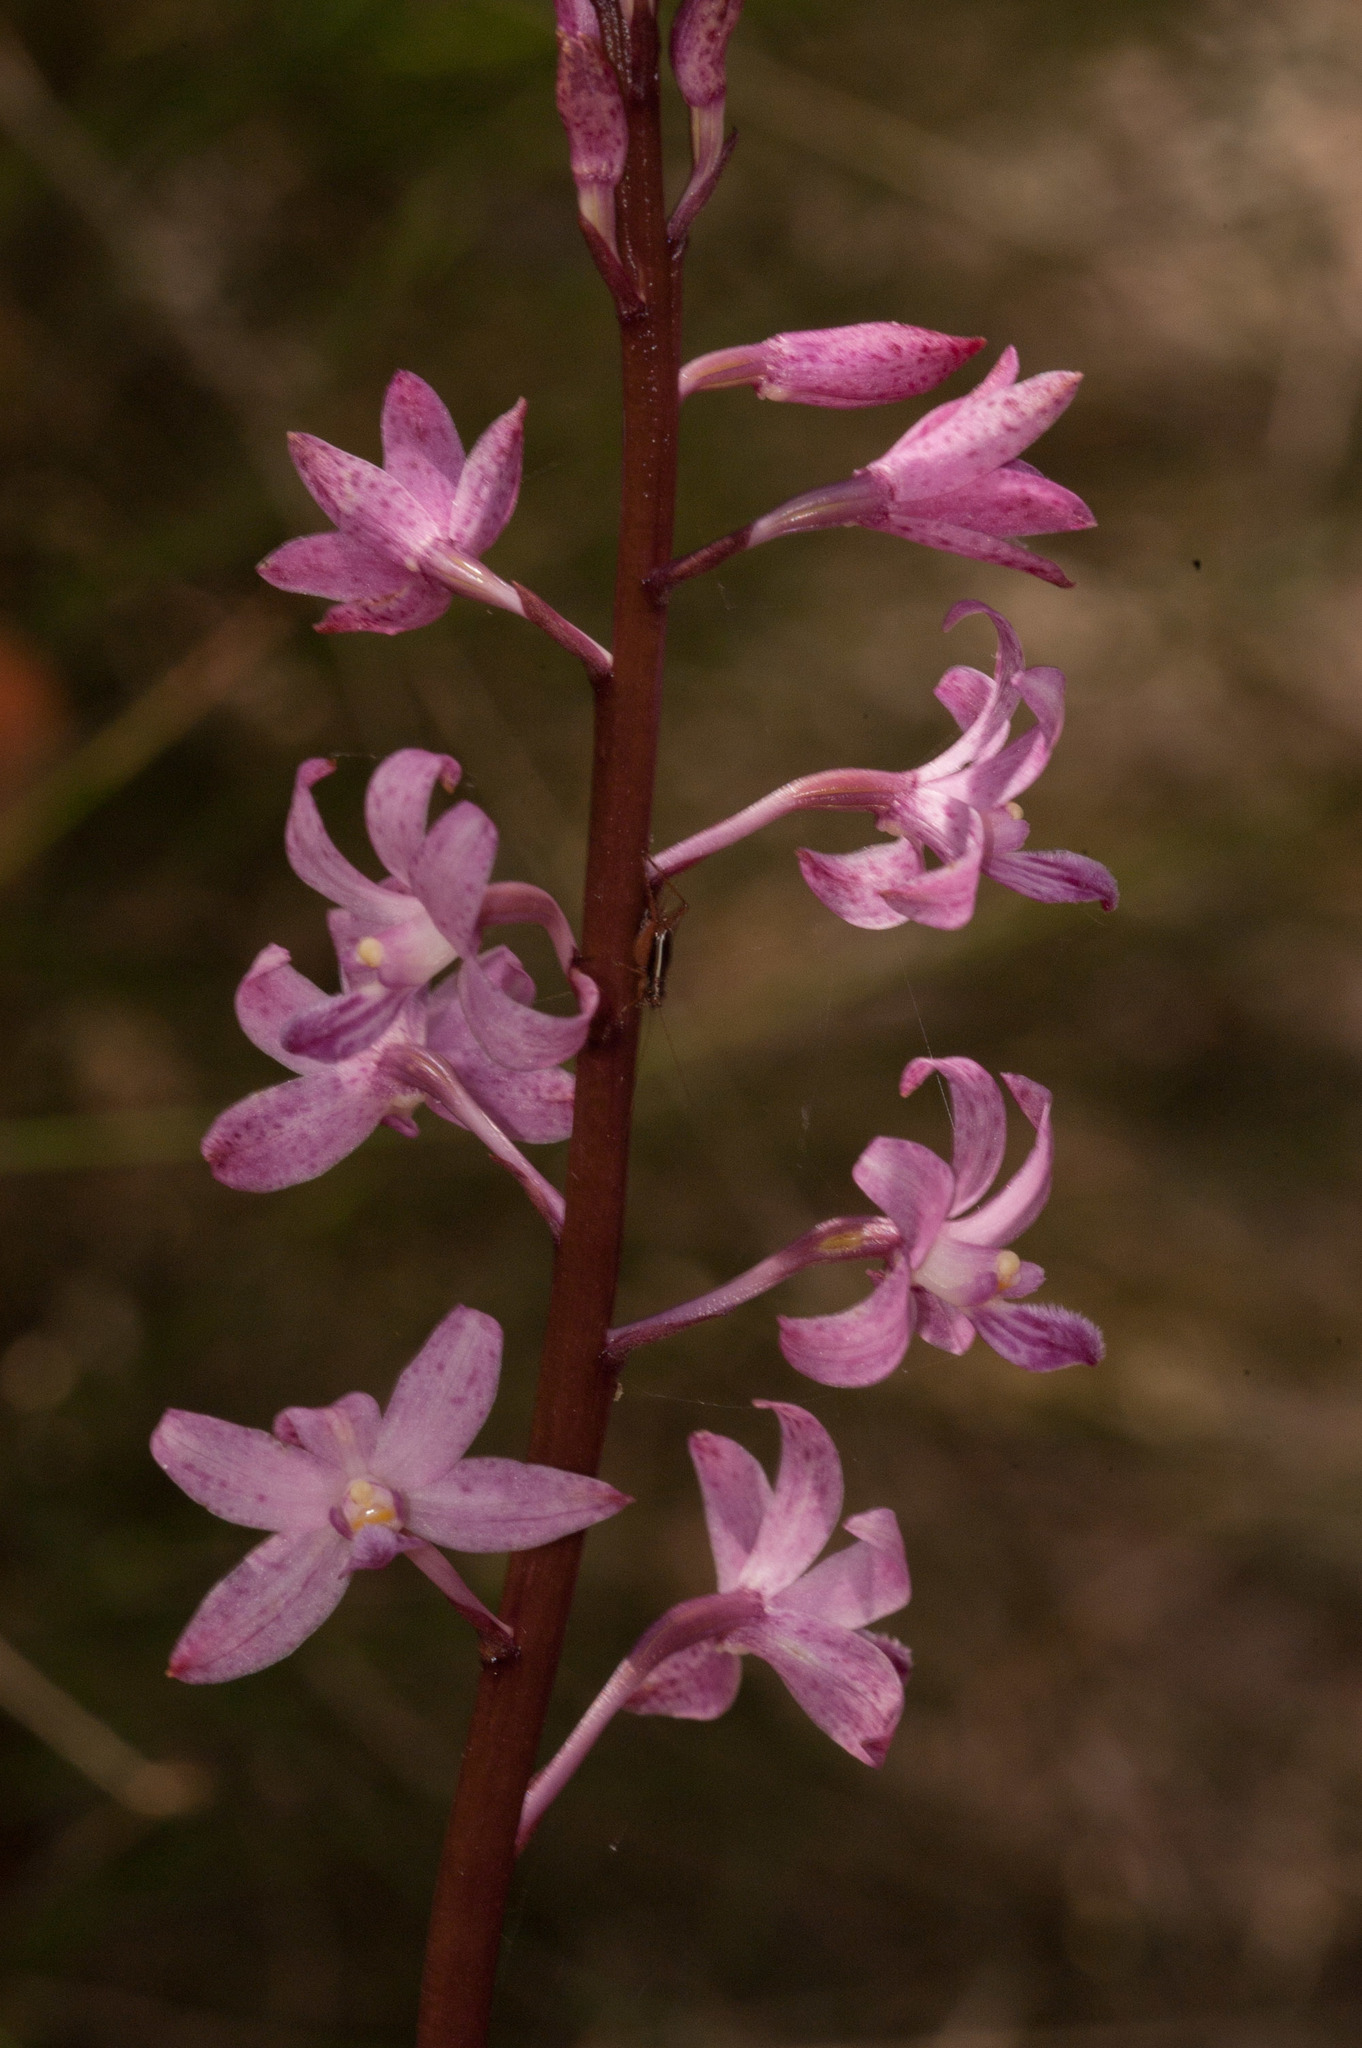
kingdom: Plantae
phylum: Tracheophyta
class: Liliopsida
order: Asparagales
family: Orchidaceae
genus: Dipodium
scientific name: Dipodium roseum
